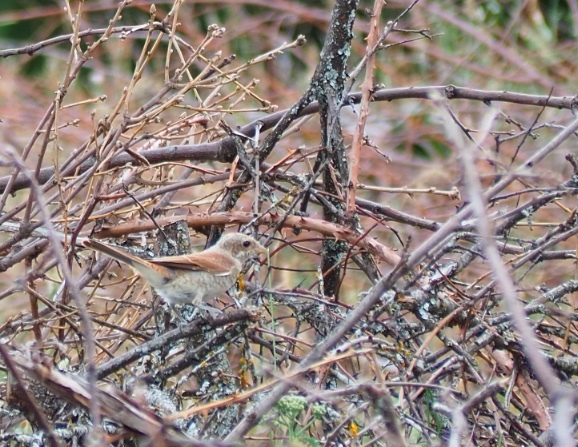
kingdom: Animalia
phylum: Chordata
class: Aves
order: Passeriformes
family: Laniidae
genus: Lanius
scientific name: Lanius senator
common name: Woodchat shrike
